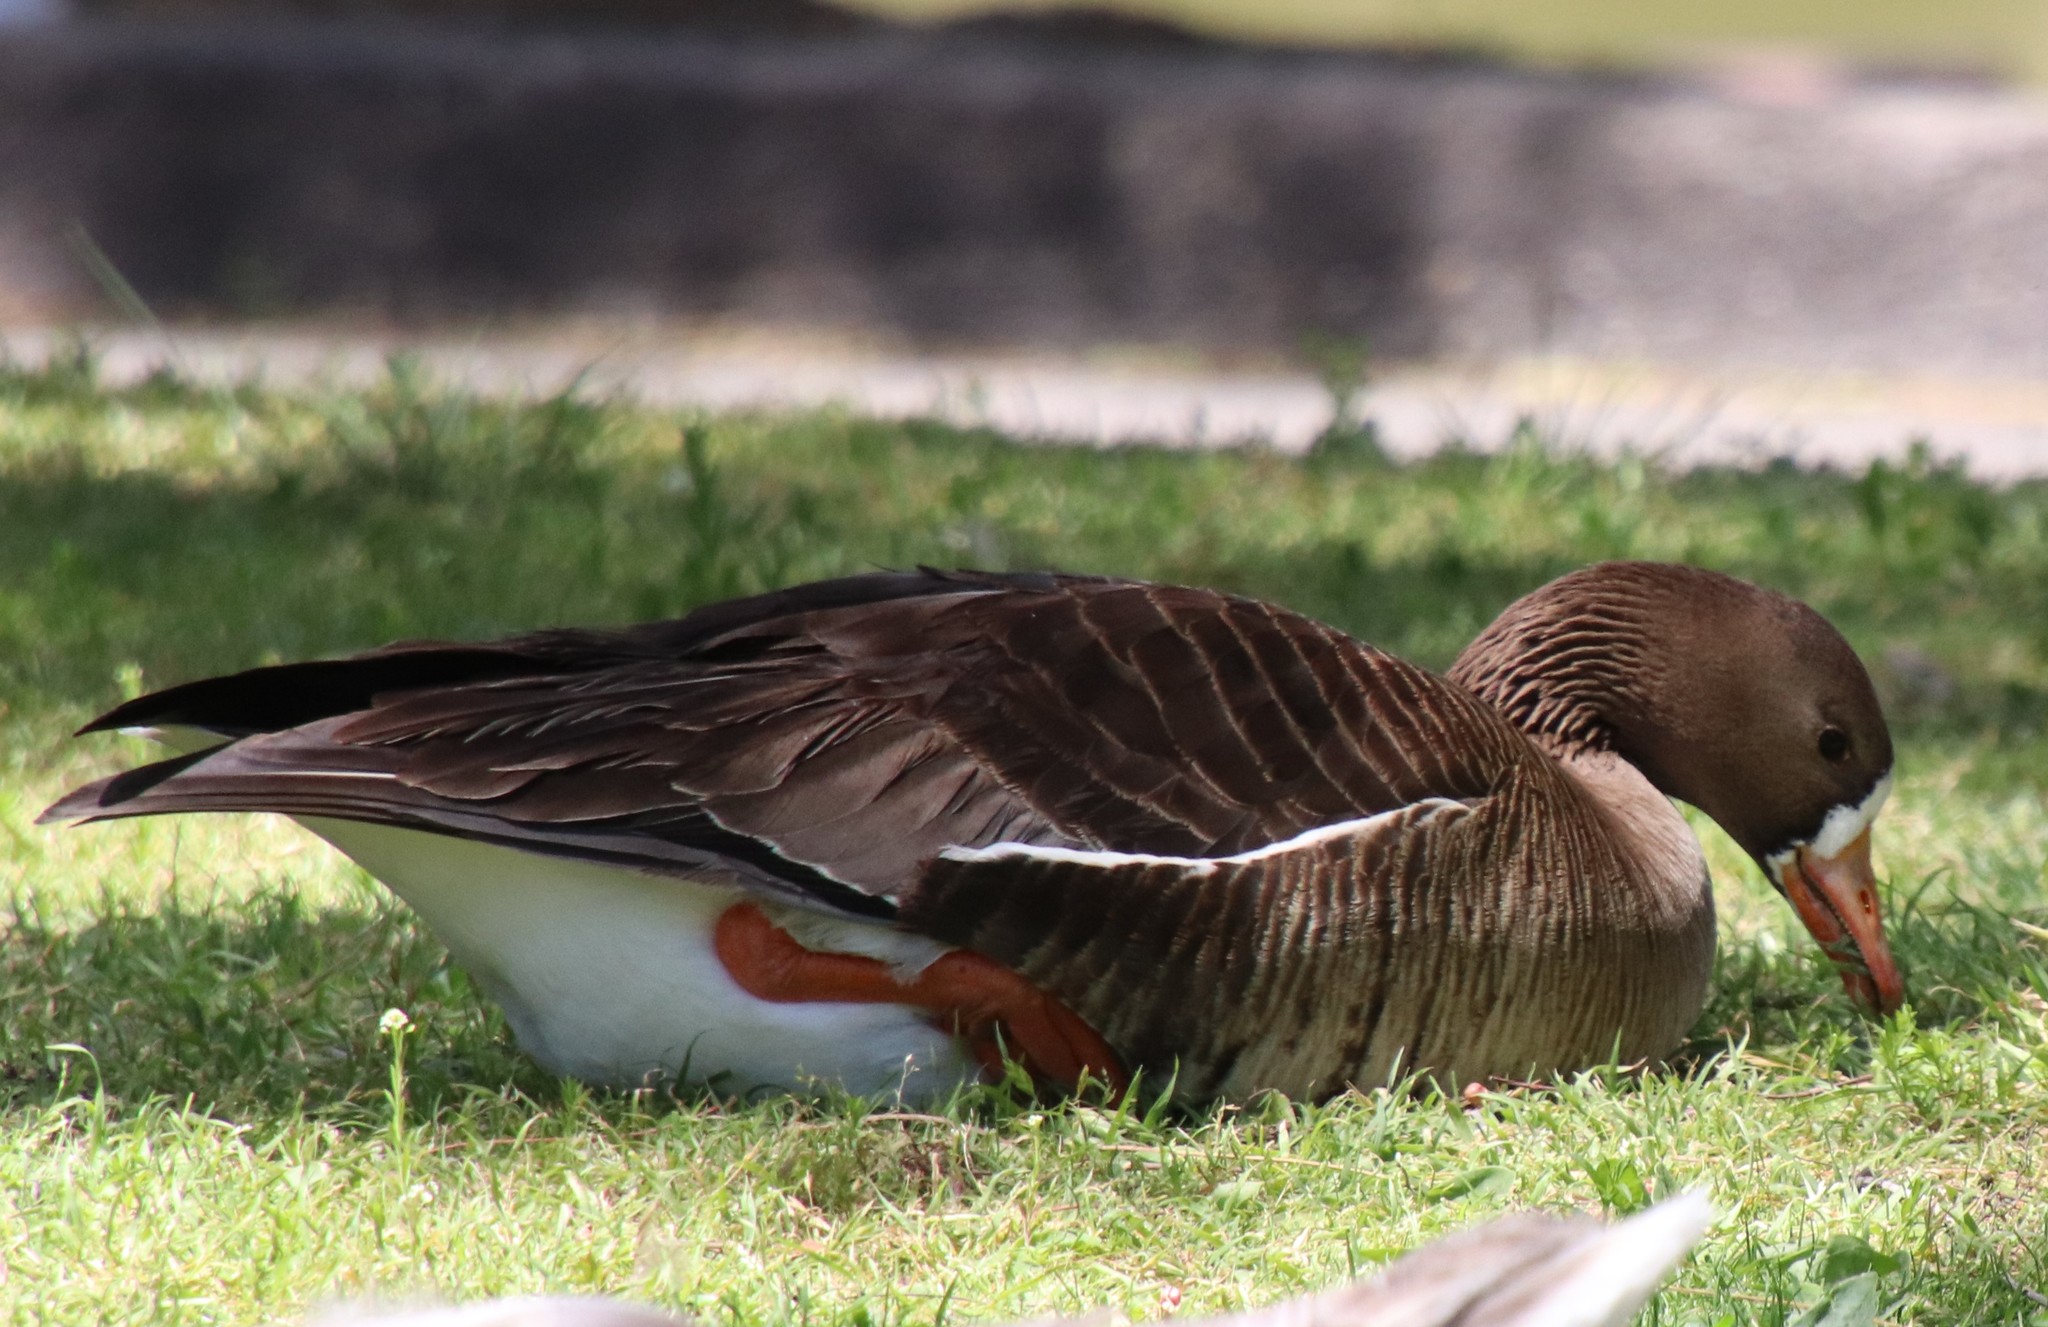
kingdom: Animalia
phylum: Chordata
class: Aves
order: Anseriformes
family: Anatidae
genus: Anser
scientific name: Anser albifrons
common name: Greater white-fronted goose
